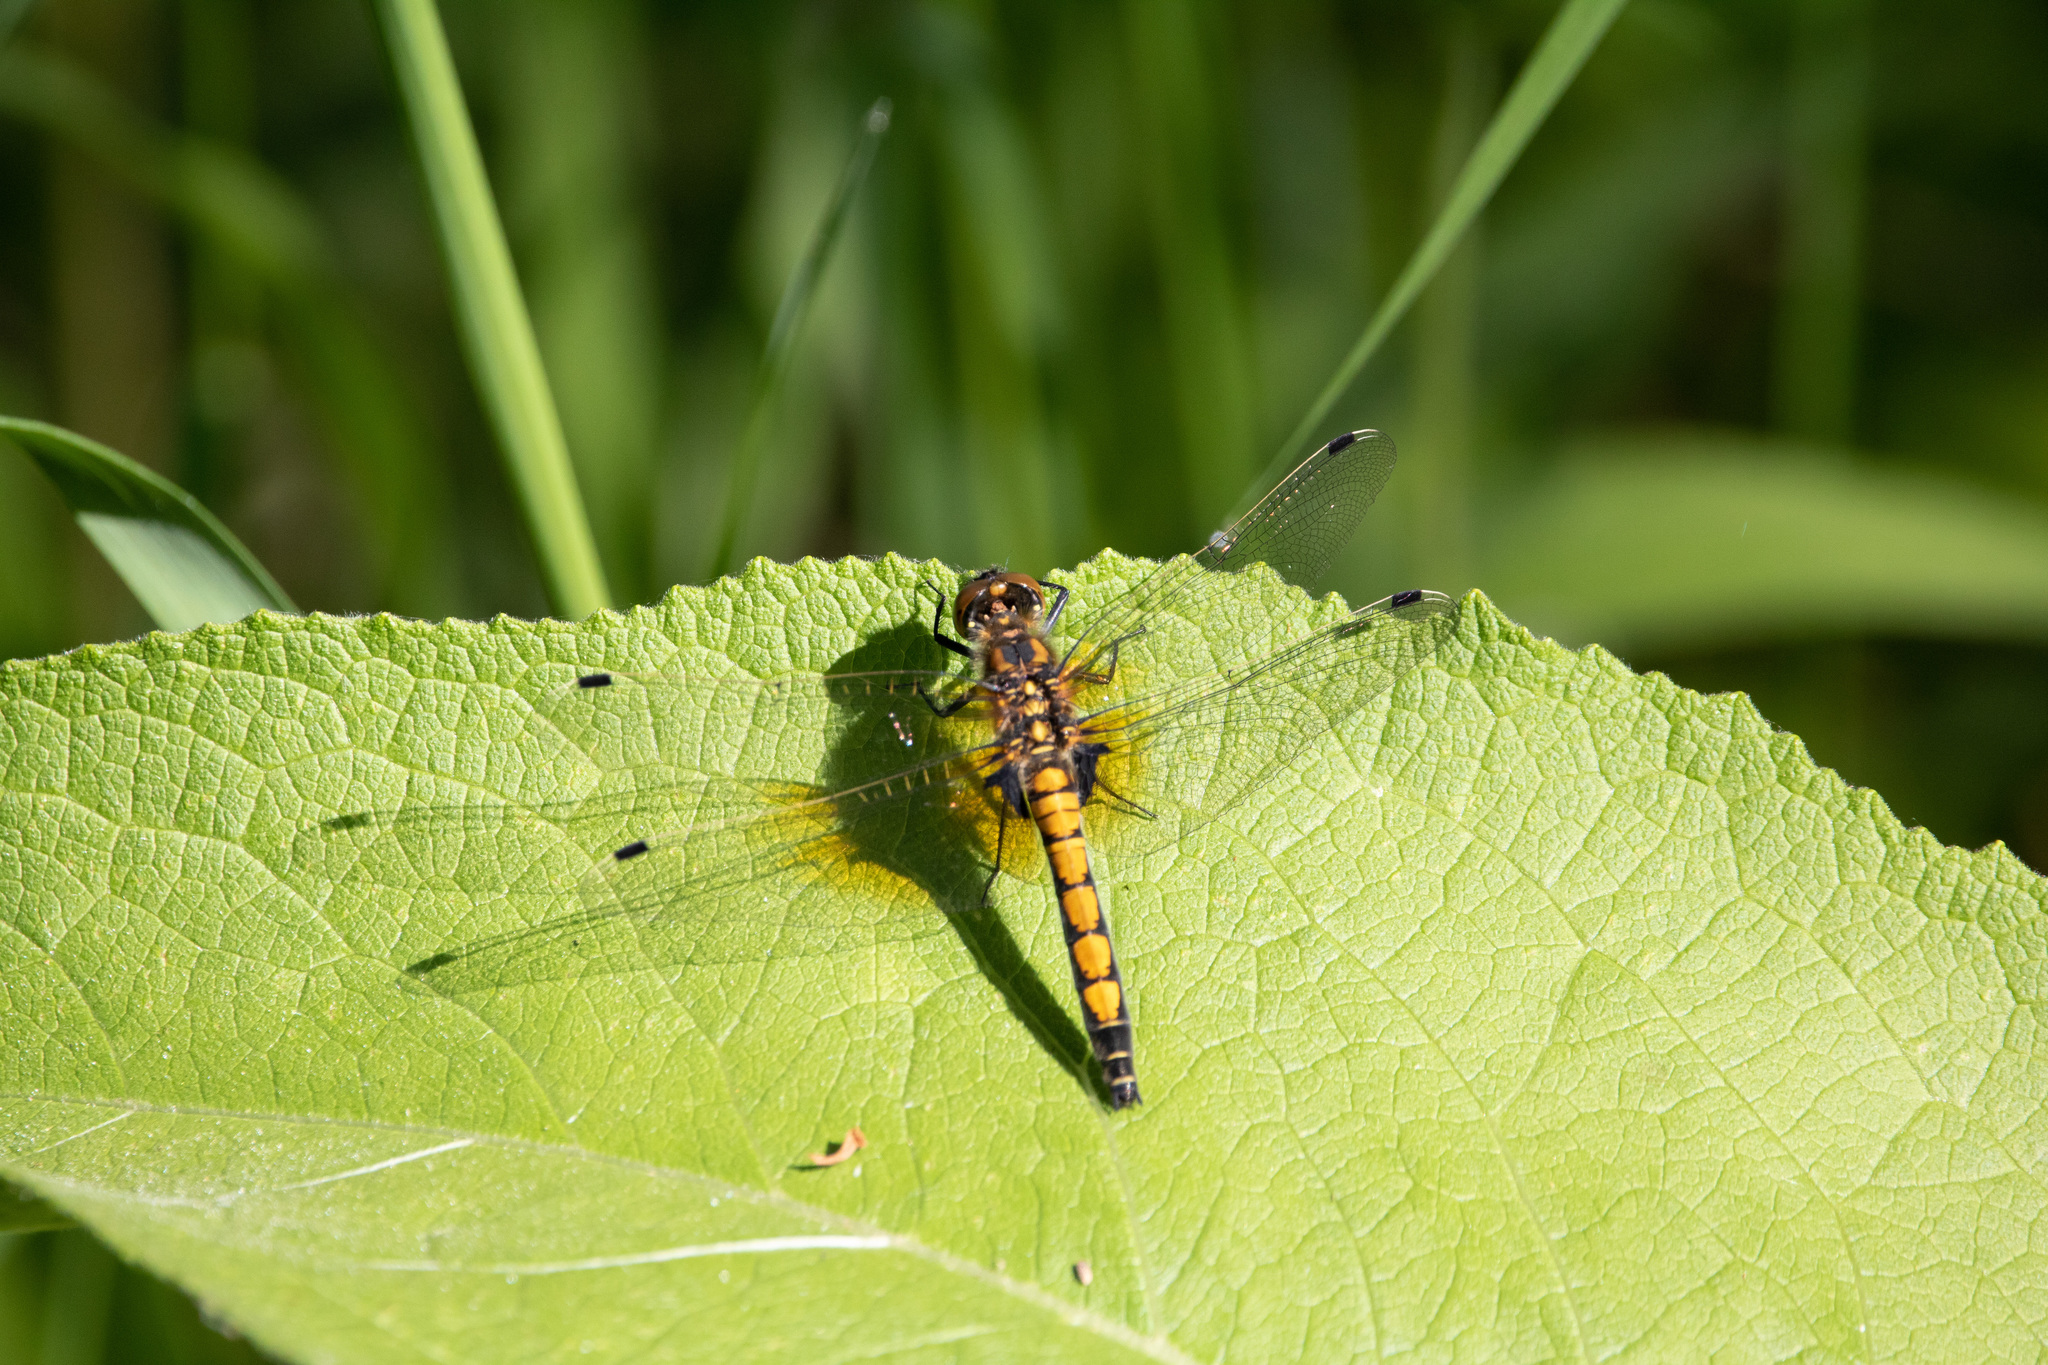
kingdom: Animalia
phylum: Arthropoda
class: Insecta
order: Odonata
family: Libellulidae
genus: Leucorrhinia
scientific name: Leucorrhinia pectoralis
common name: Yellow-spotted whiteface
